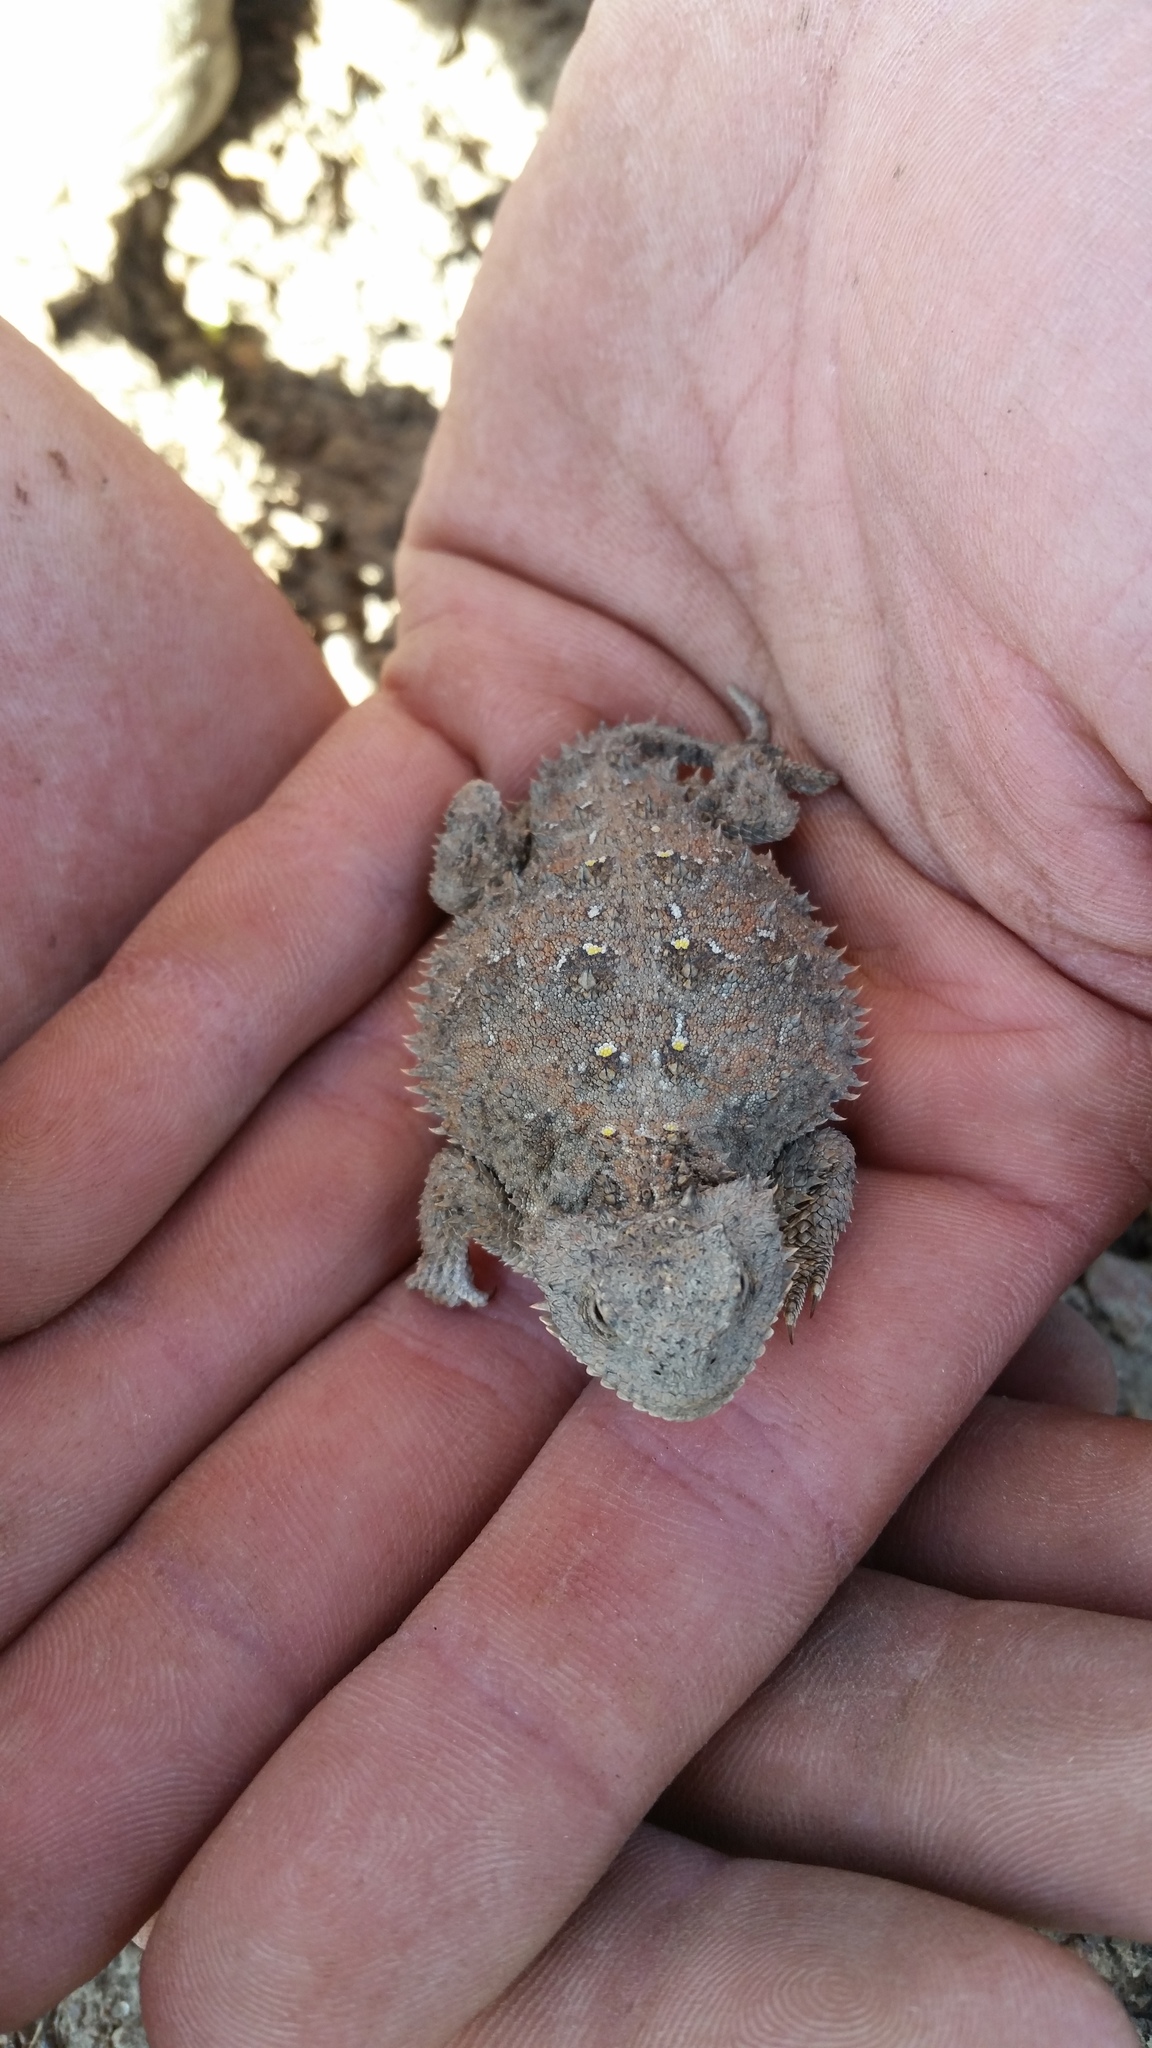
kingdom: Animalia
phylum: Chordata
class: Squamata
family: Phrynosomatidae
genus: Phrynosoma
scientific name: Phrynosoma douglasii
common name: Short-horned lizard
